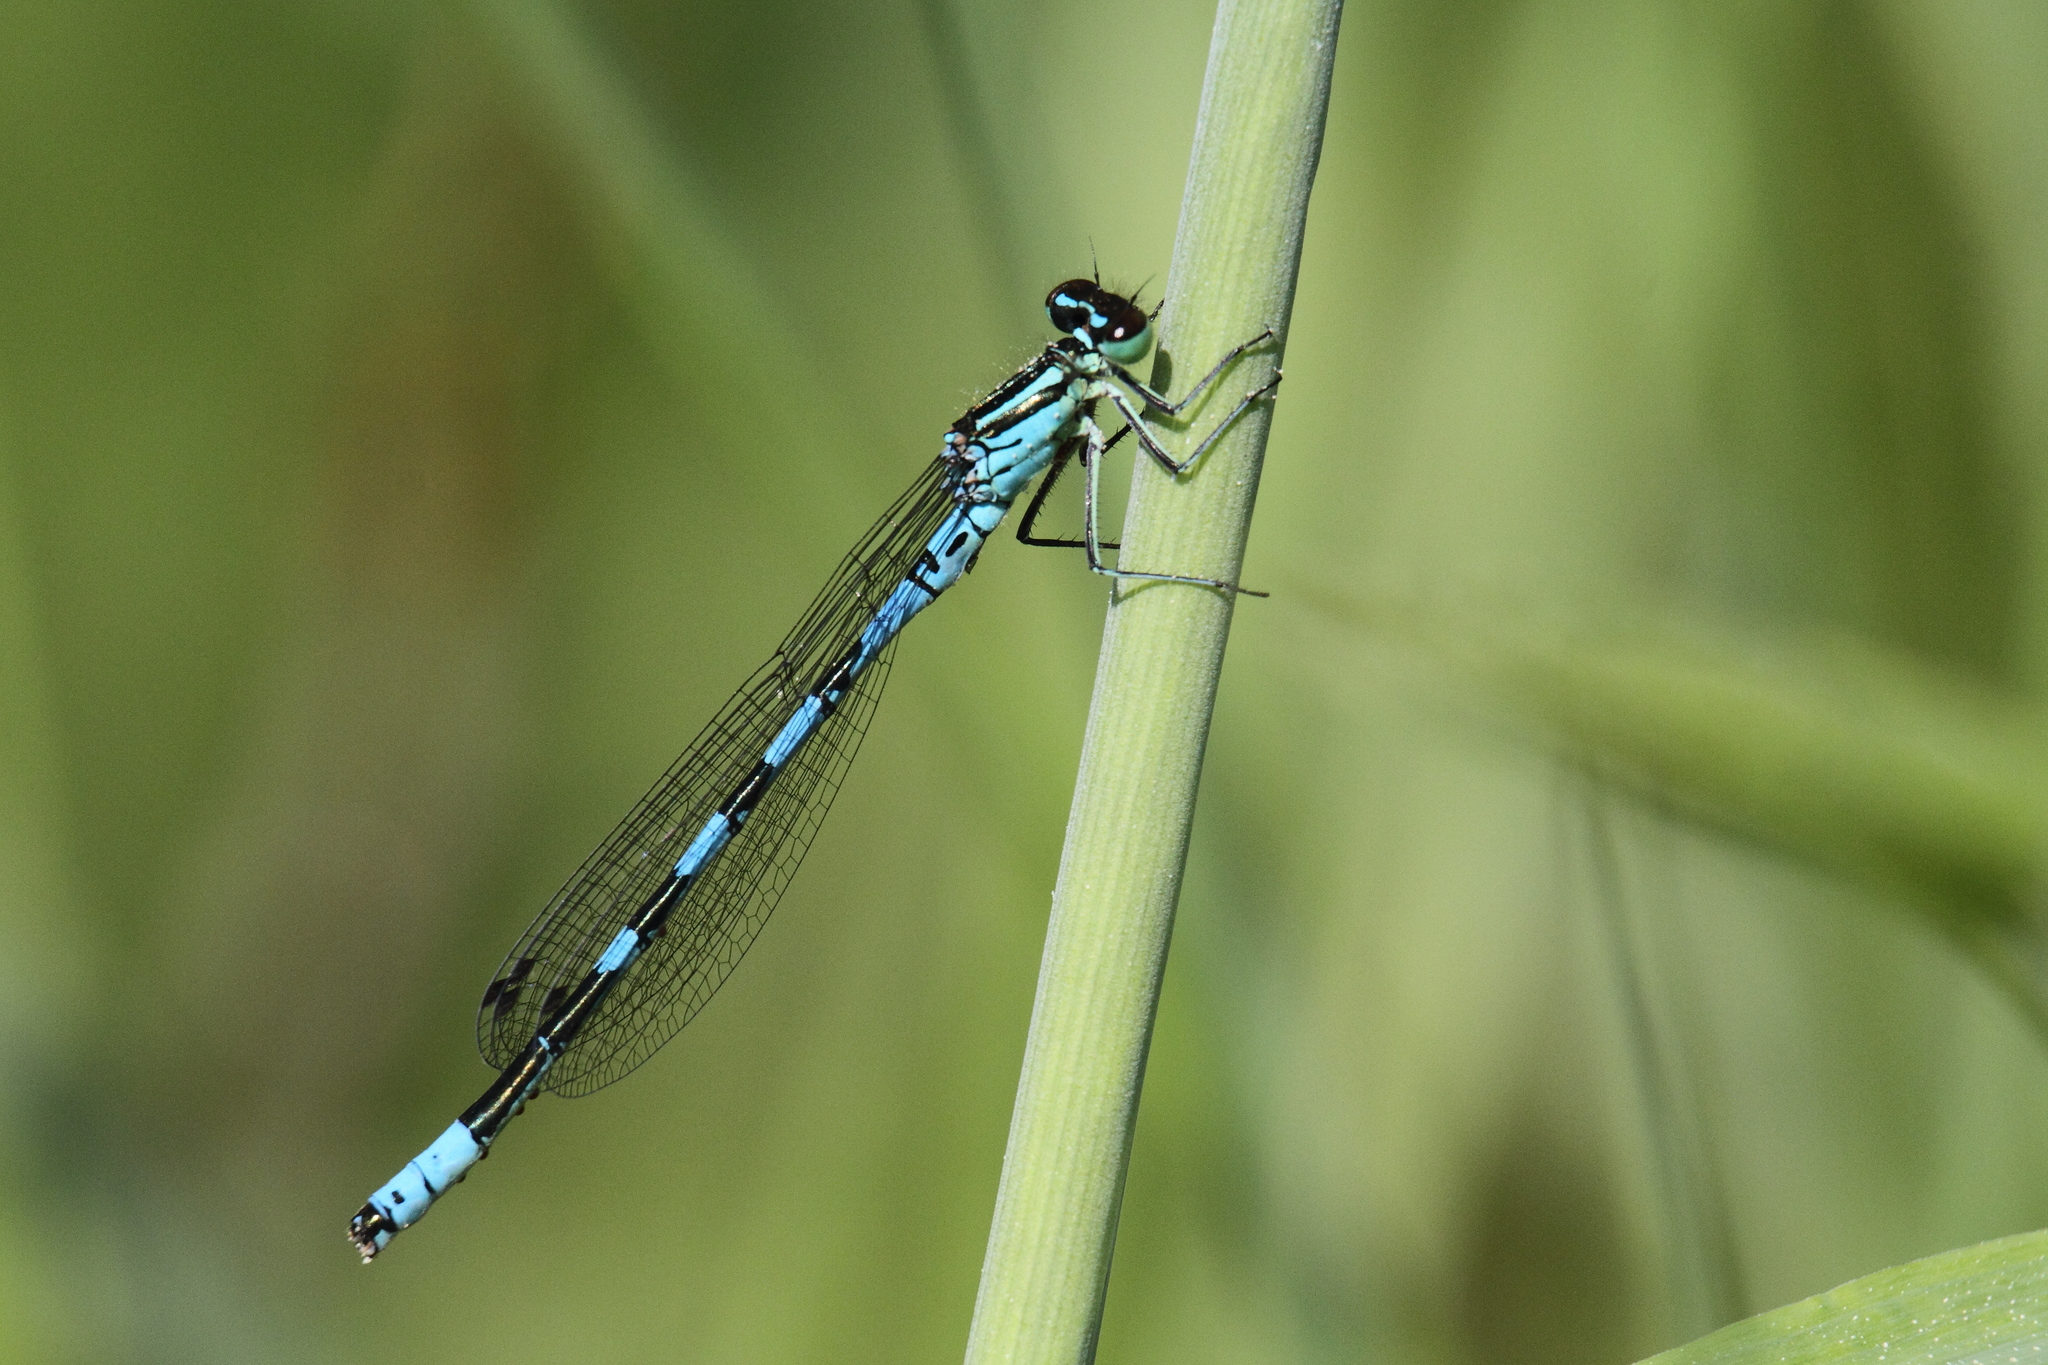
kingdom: Animalia
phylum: Arthropoda
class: Insecta
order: Odonata
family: Coenagrionidae
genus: Coenagrion
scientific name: Coenagrion hastulatum
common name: Spearhead bluet
